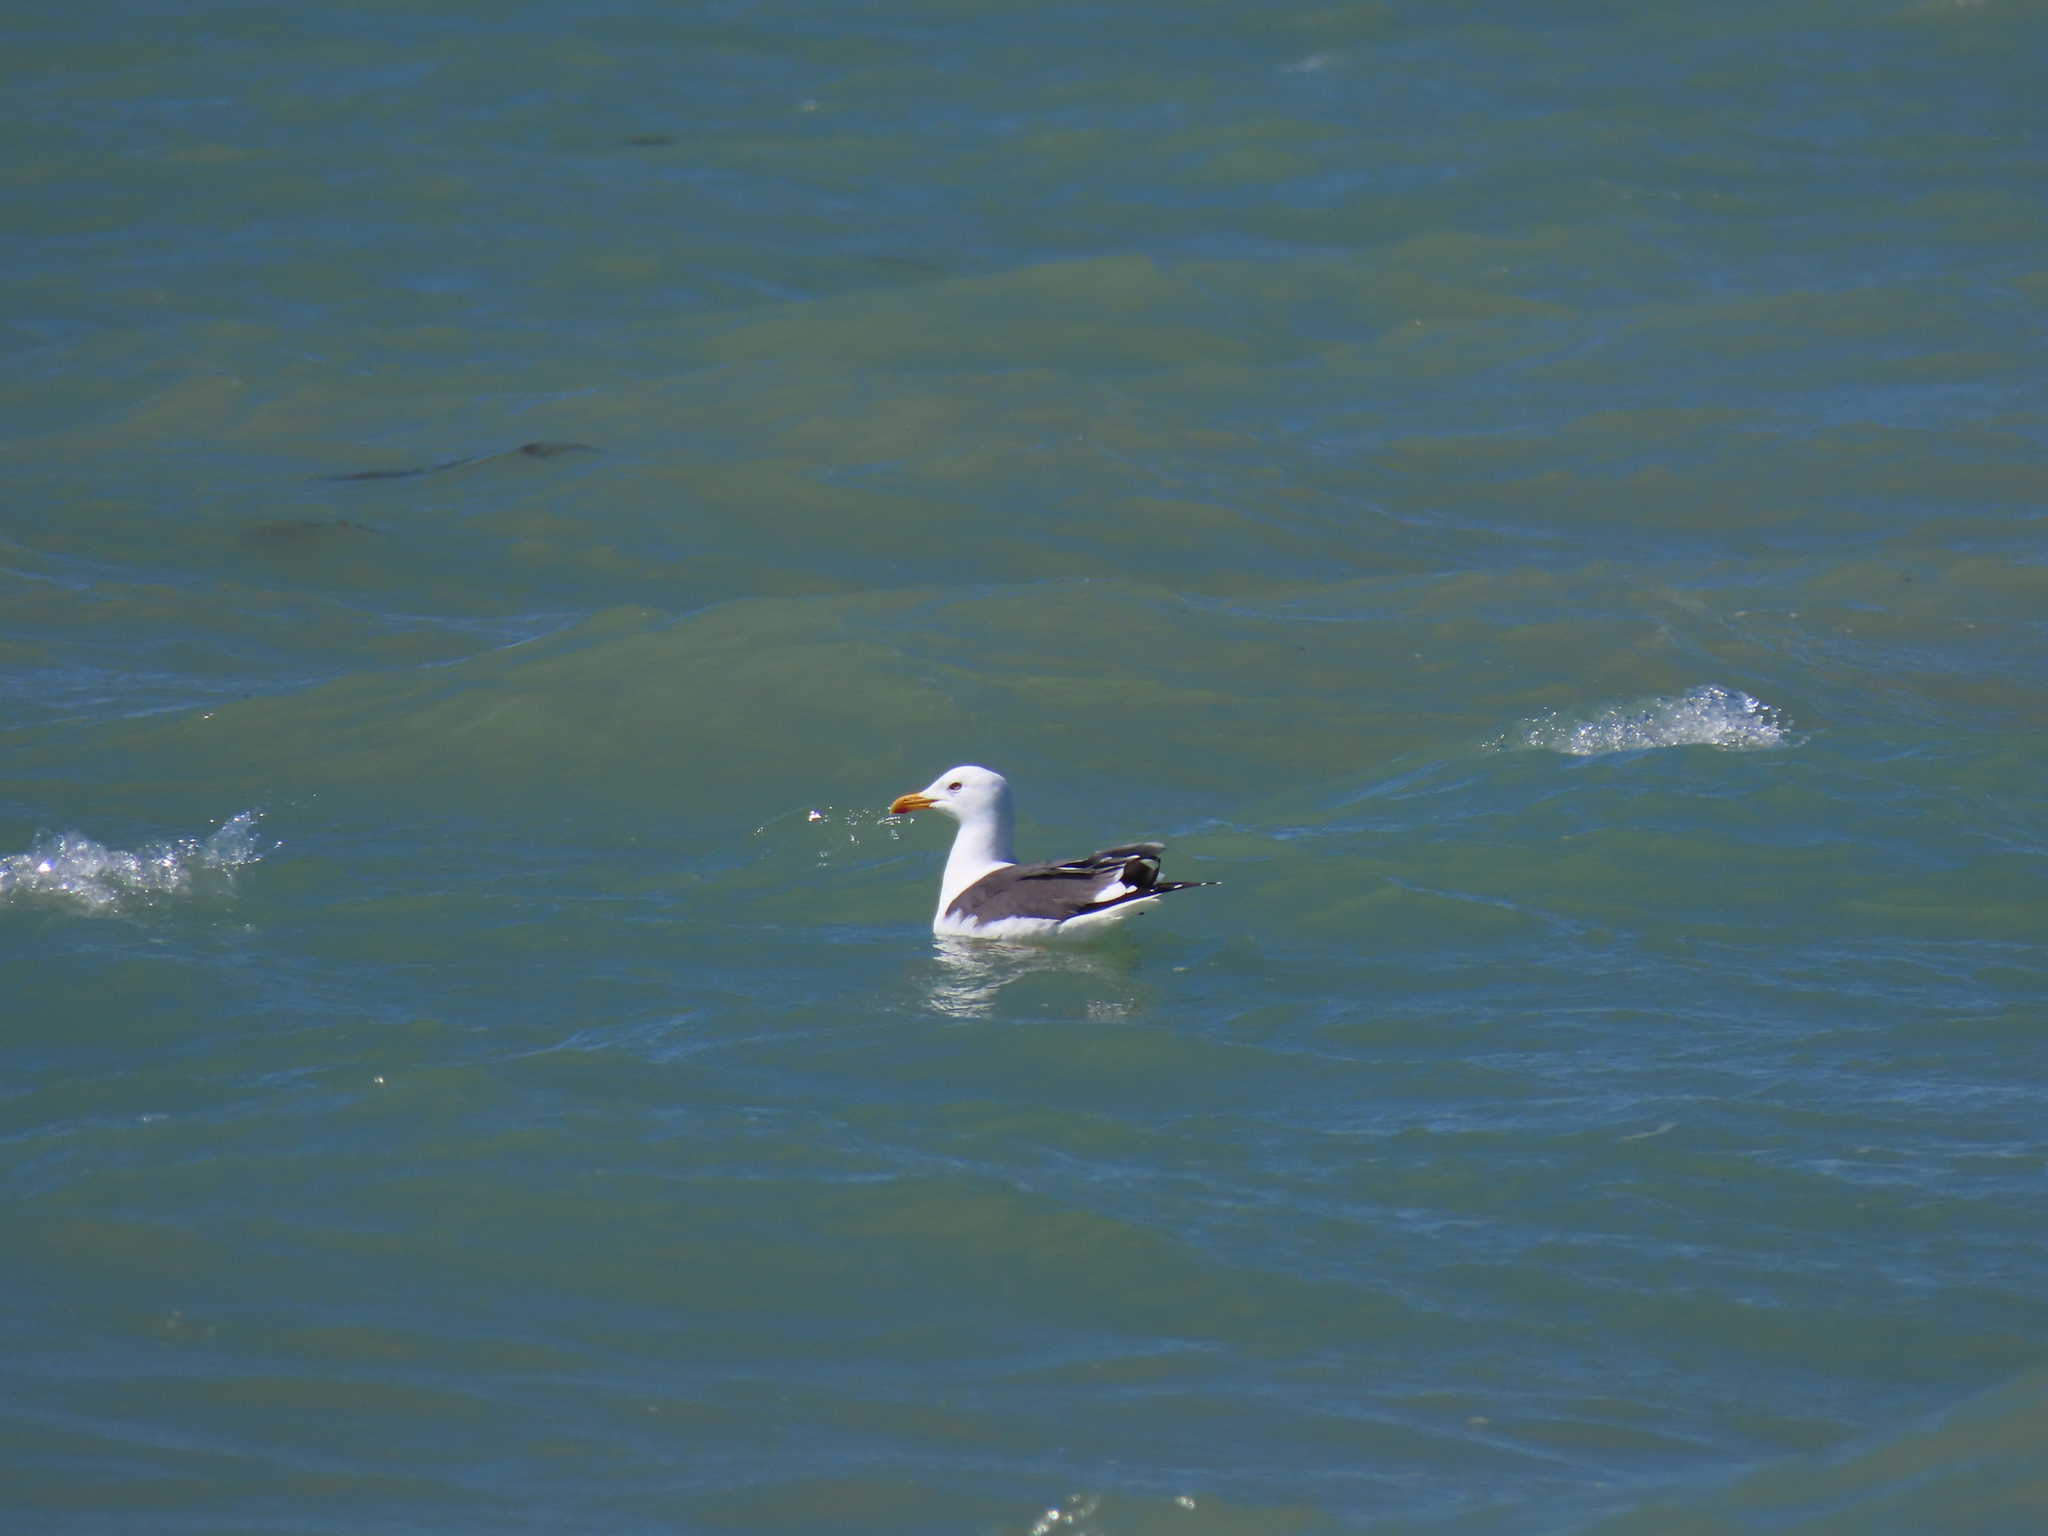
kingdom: Animalia
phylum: Chordata
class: Aves
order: Charadriiformes
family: Laridae
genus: Larus
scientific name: Larus fuscus
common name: Lesser black-backed gull
